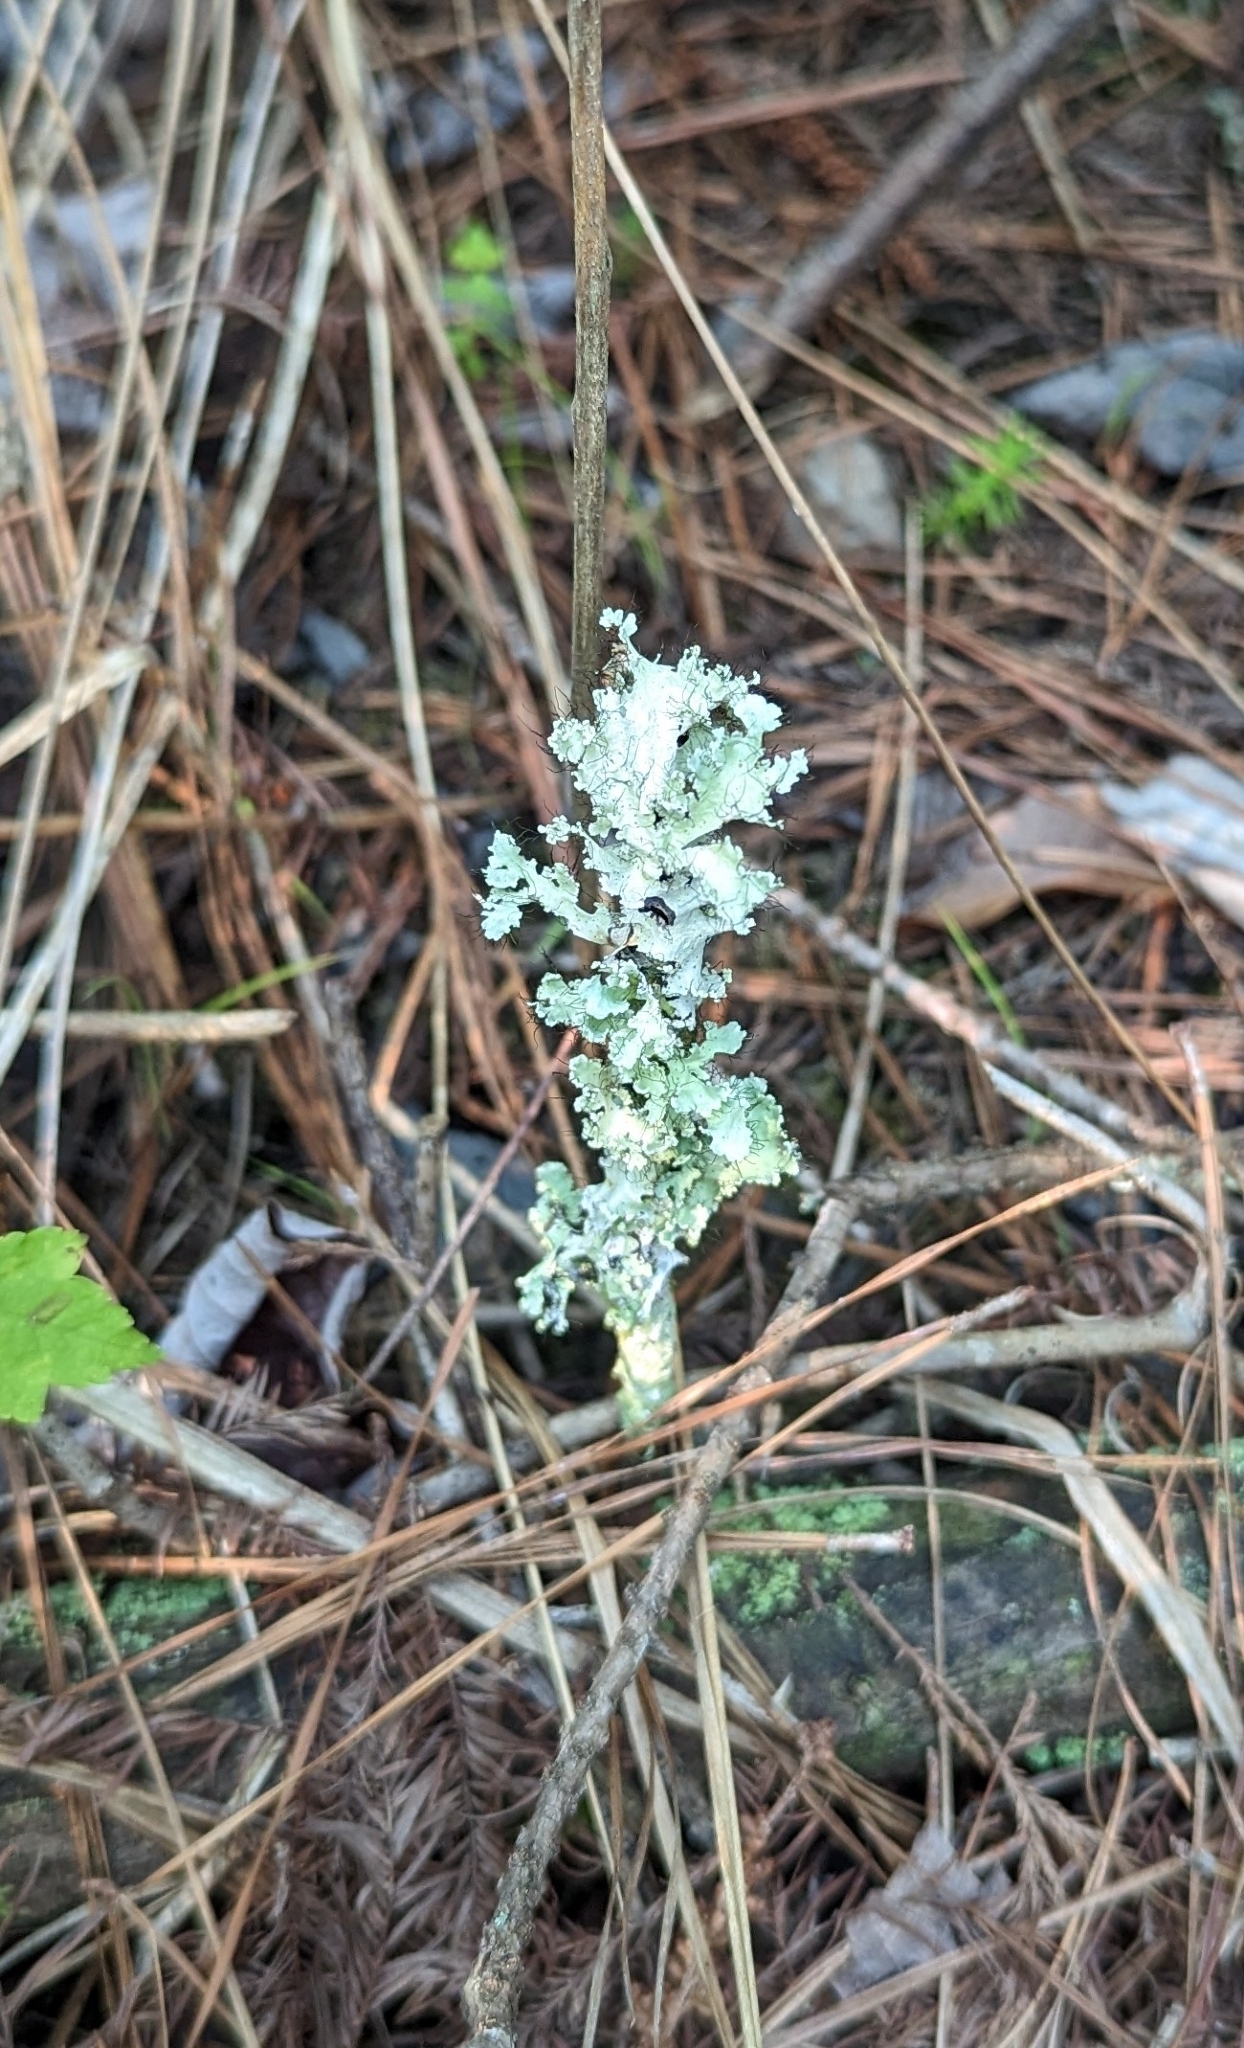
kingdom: Fungi
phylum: Ascomycota
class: Lecanoromycetes
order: Lecanorales
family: Parmeliaceae
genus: Parmotrema
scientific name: Parmotrema hypotropum
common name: Powdered ruffle lichen
